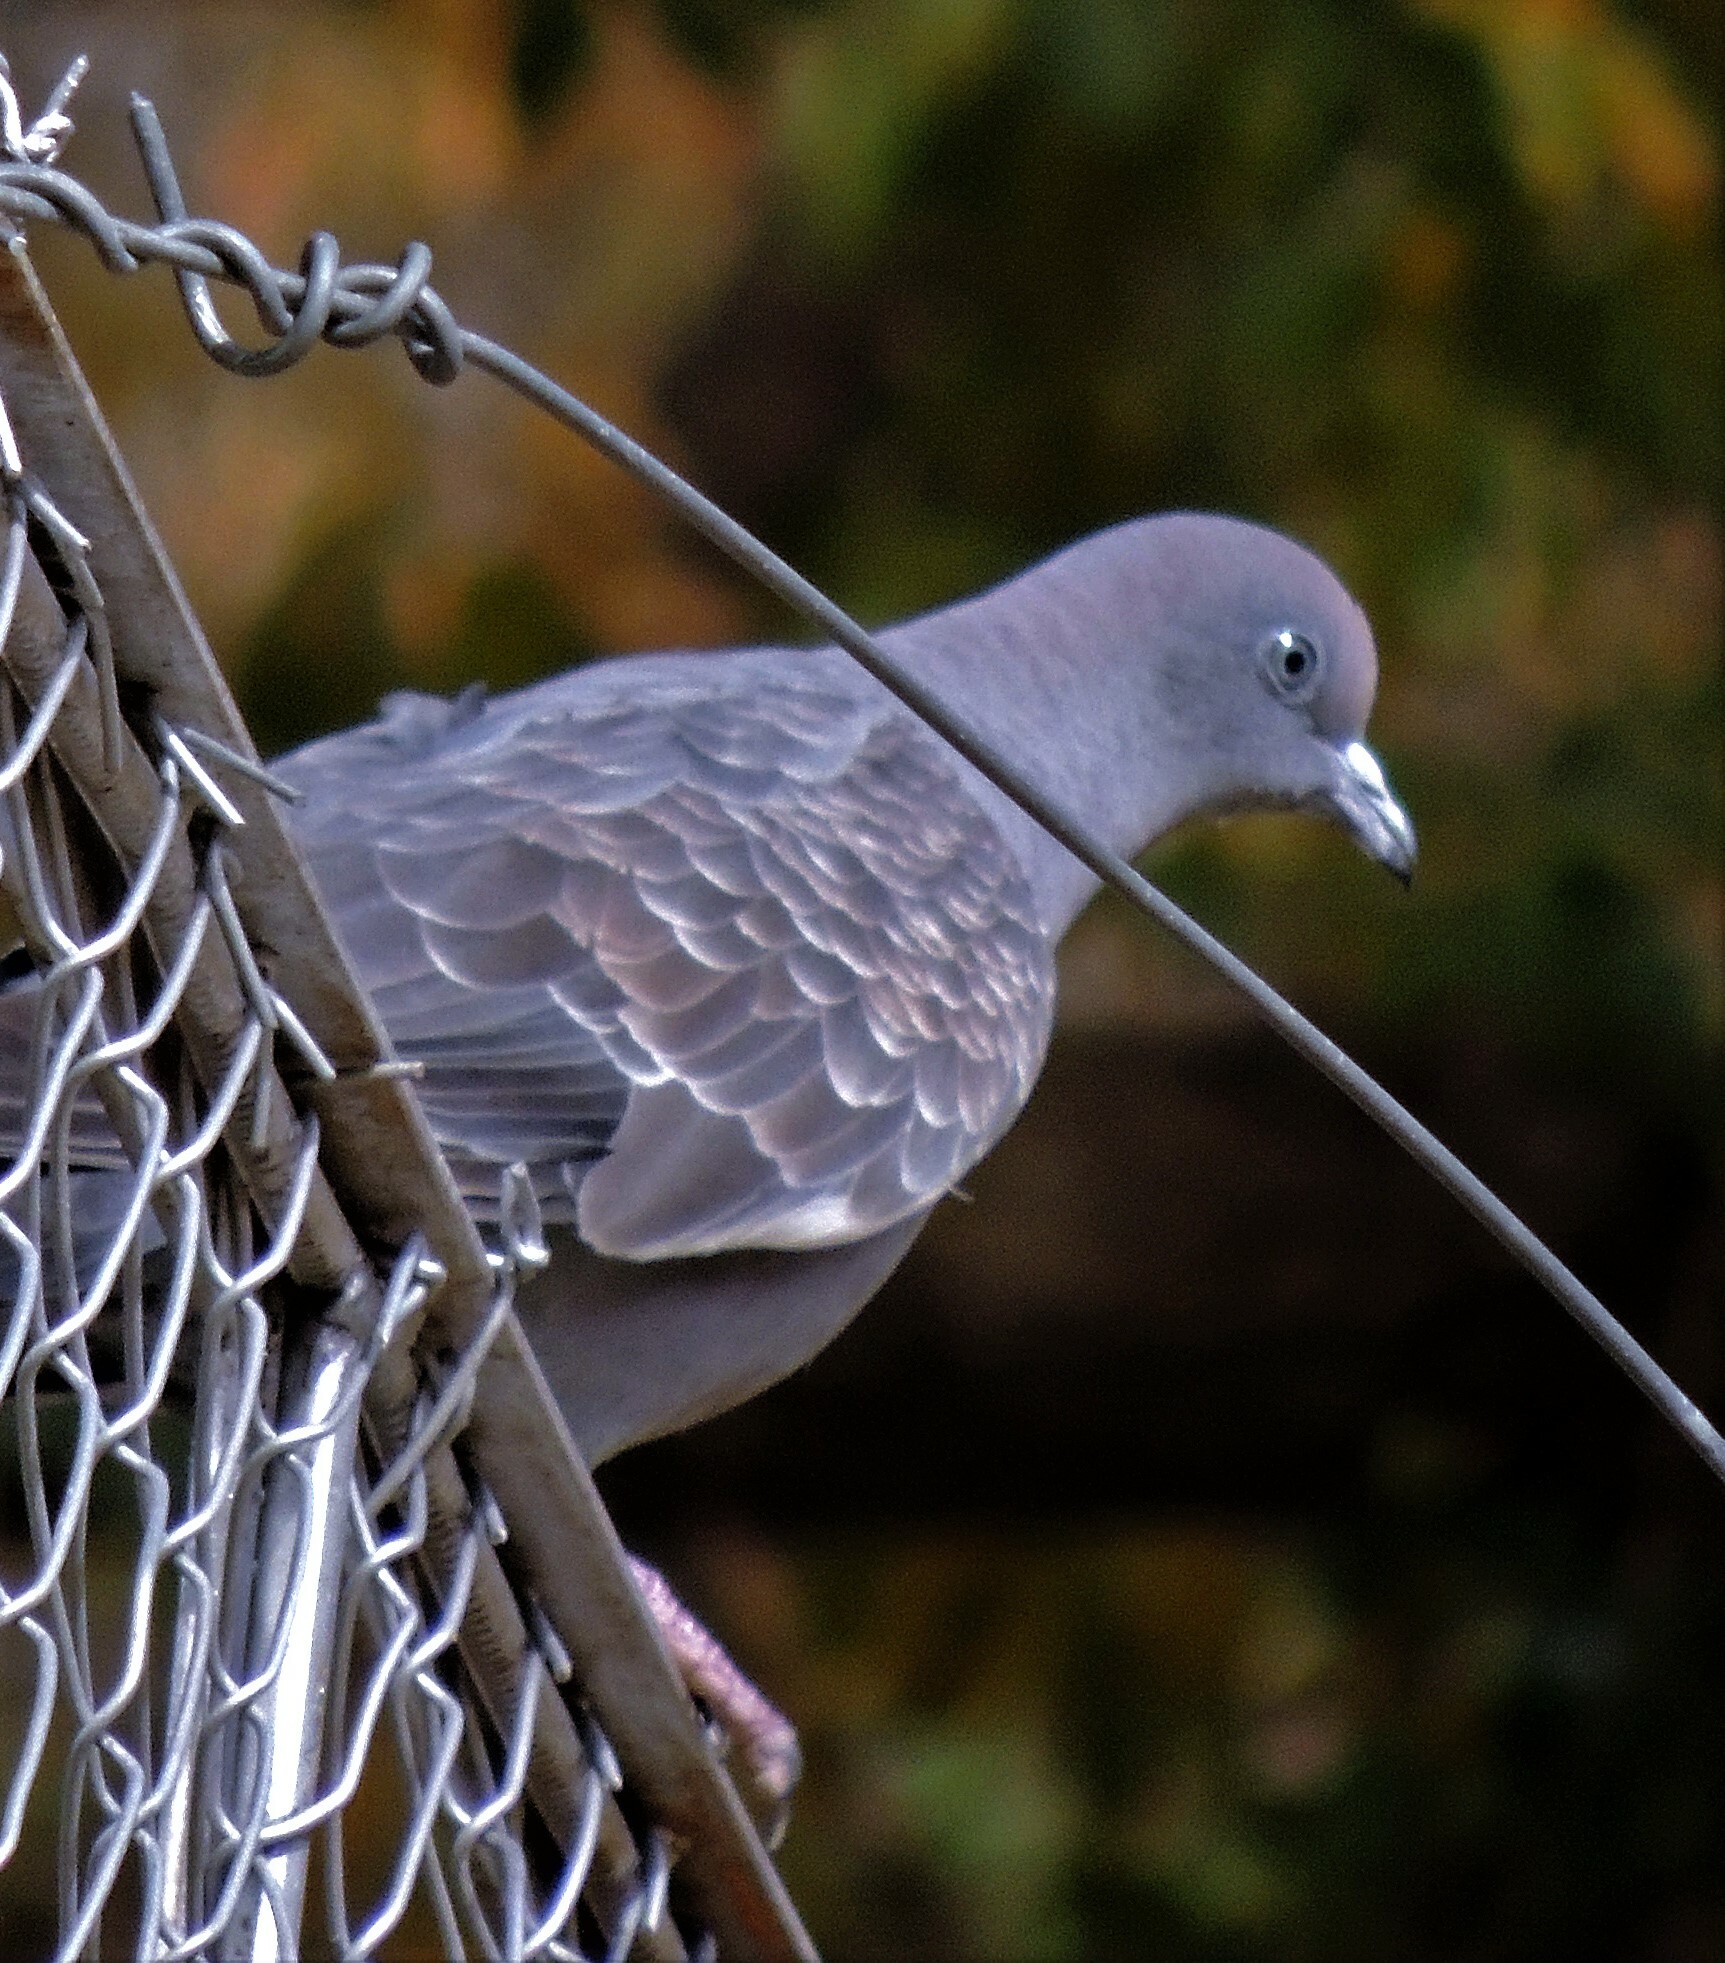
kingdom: Animalia
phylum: Chordata
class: Aves
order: Columbiformes
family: Columbidae
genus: Patagioenas
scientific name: Patagioenas maculosa
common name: Spot-winged pigeon
